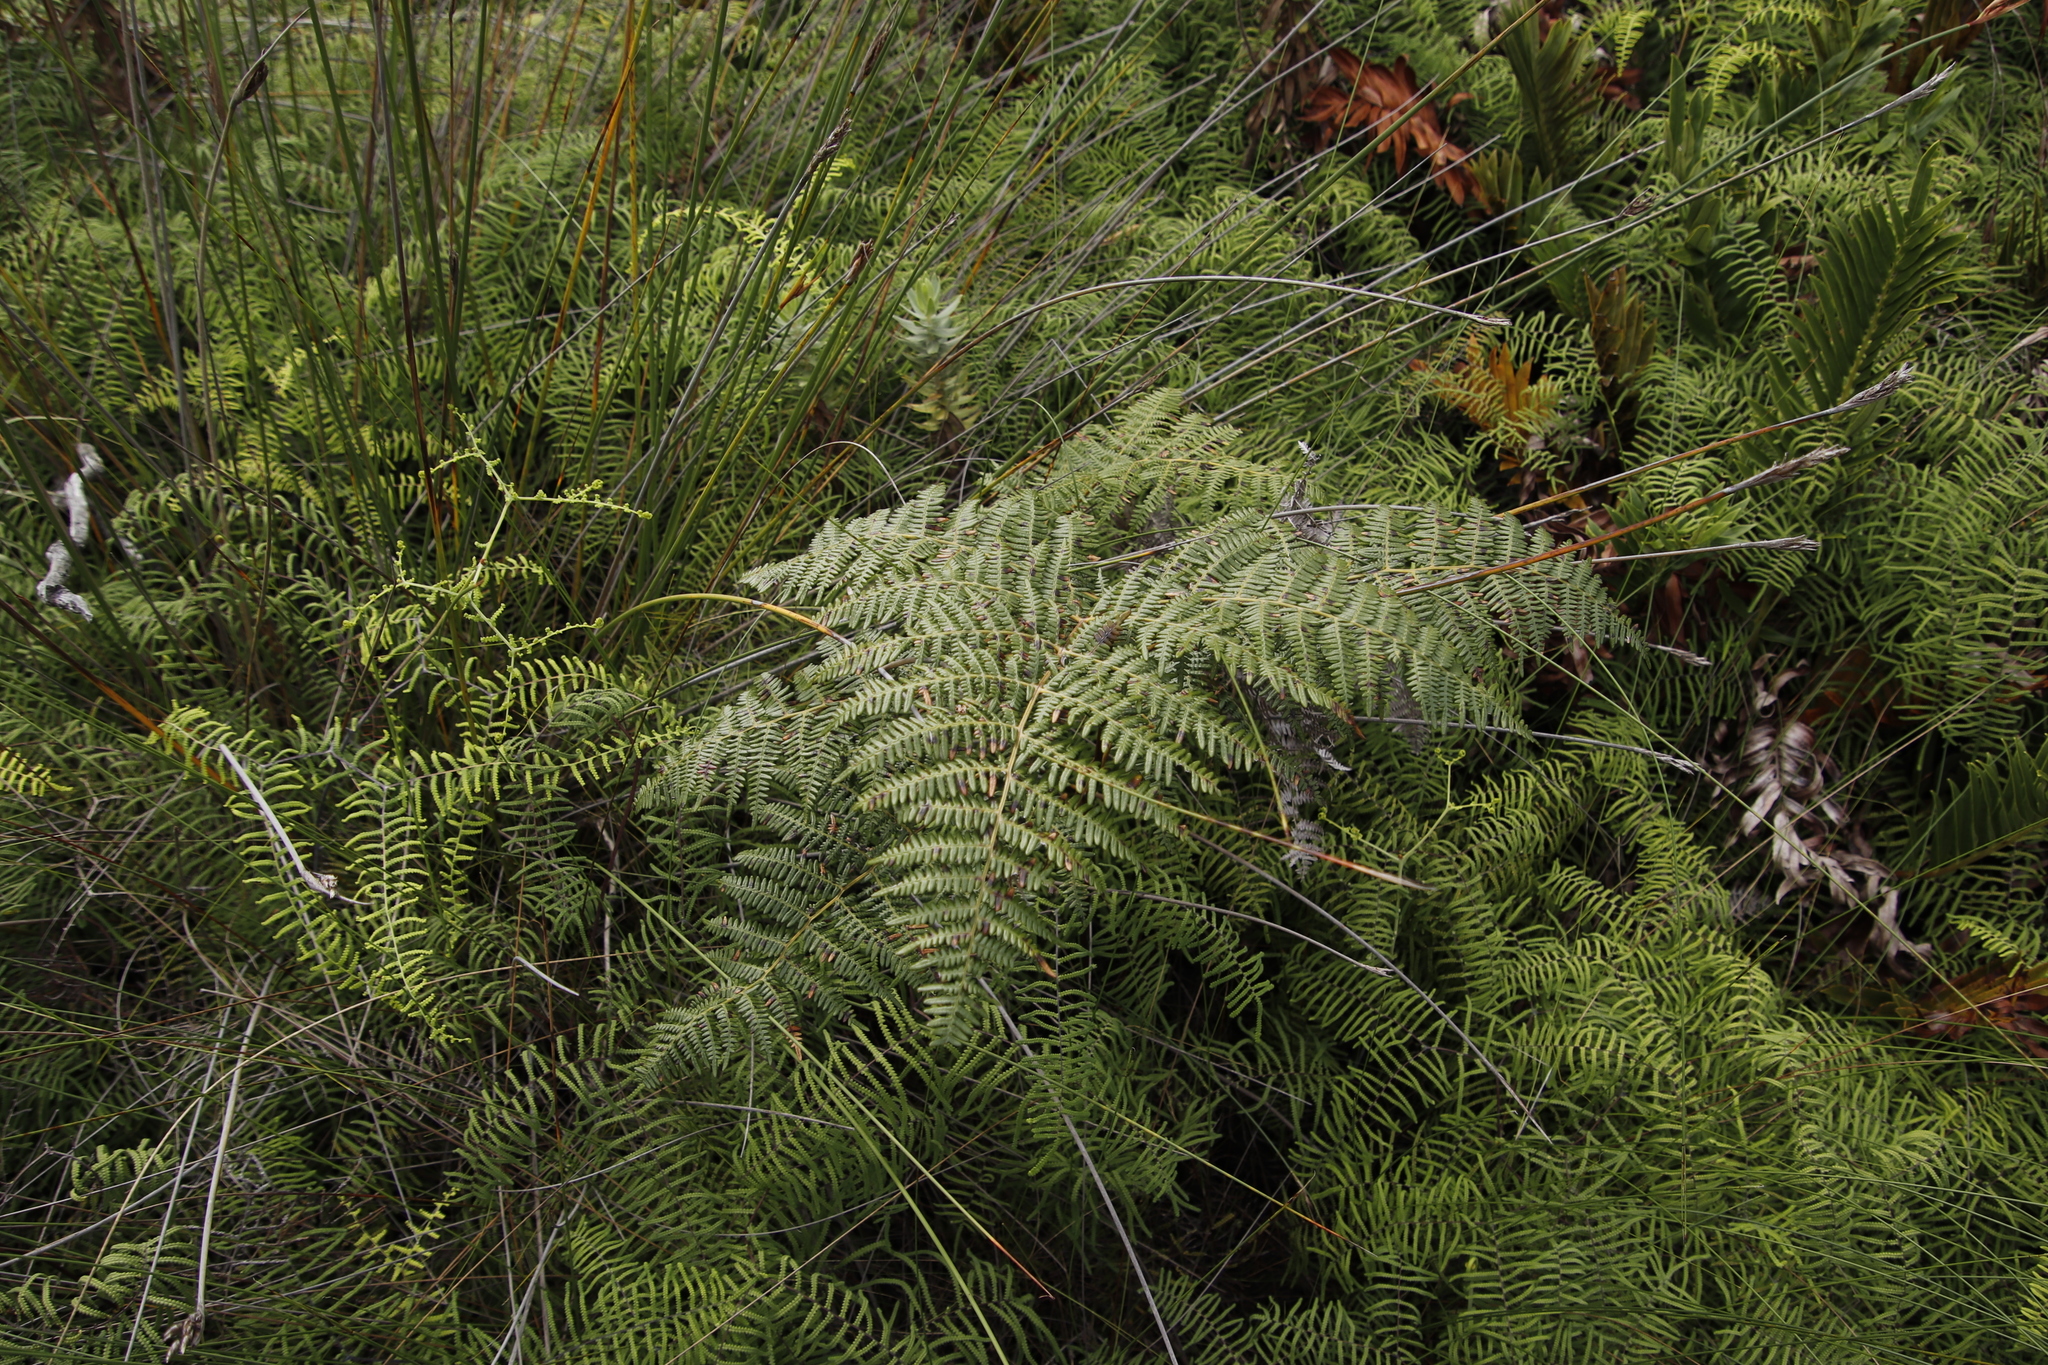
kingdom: Plantae
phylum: Tracheophyta
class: Polypodiopsida
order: Gleicheniales
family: Gleicheniaceae
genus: Gleichenia
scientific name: Gleichenia polypodioides
